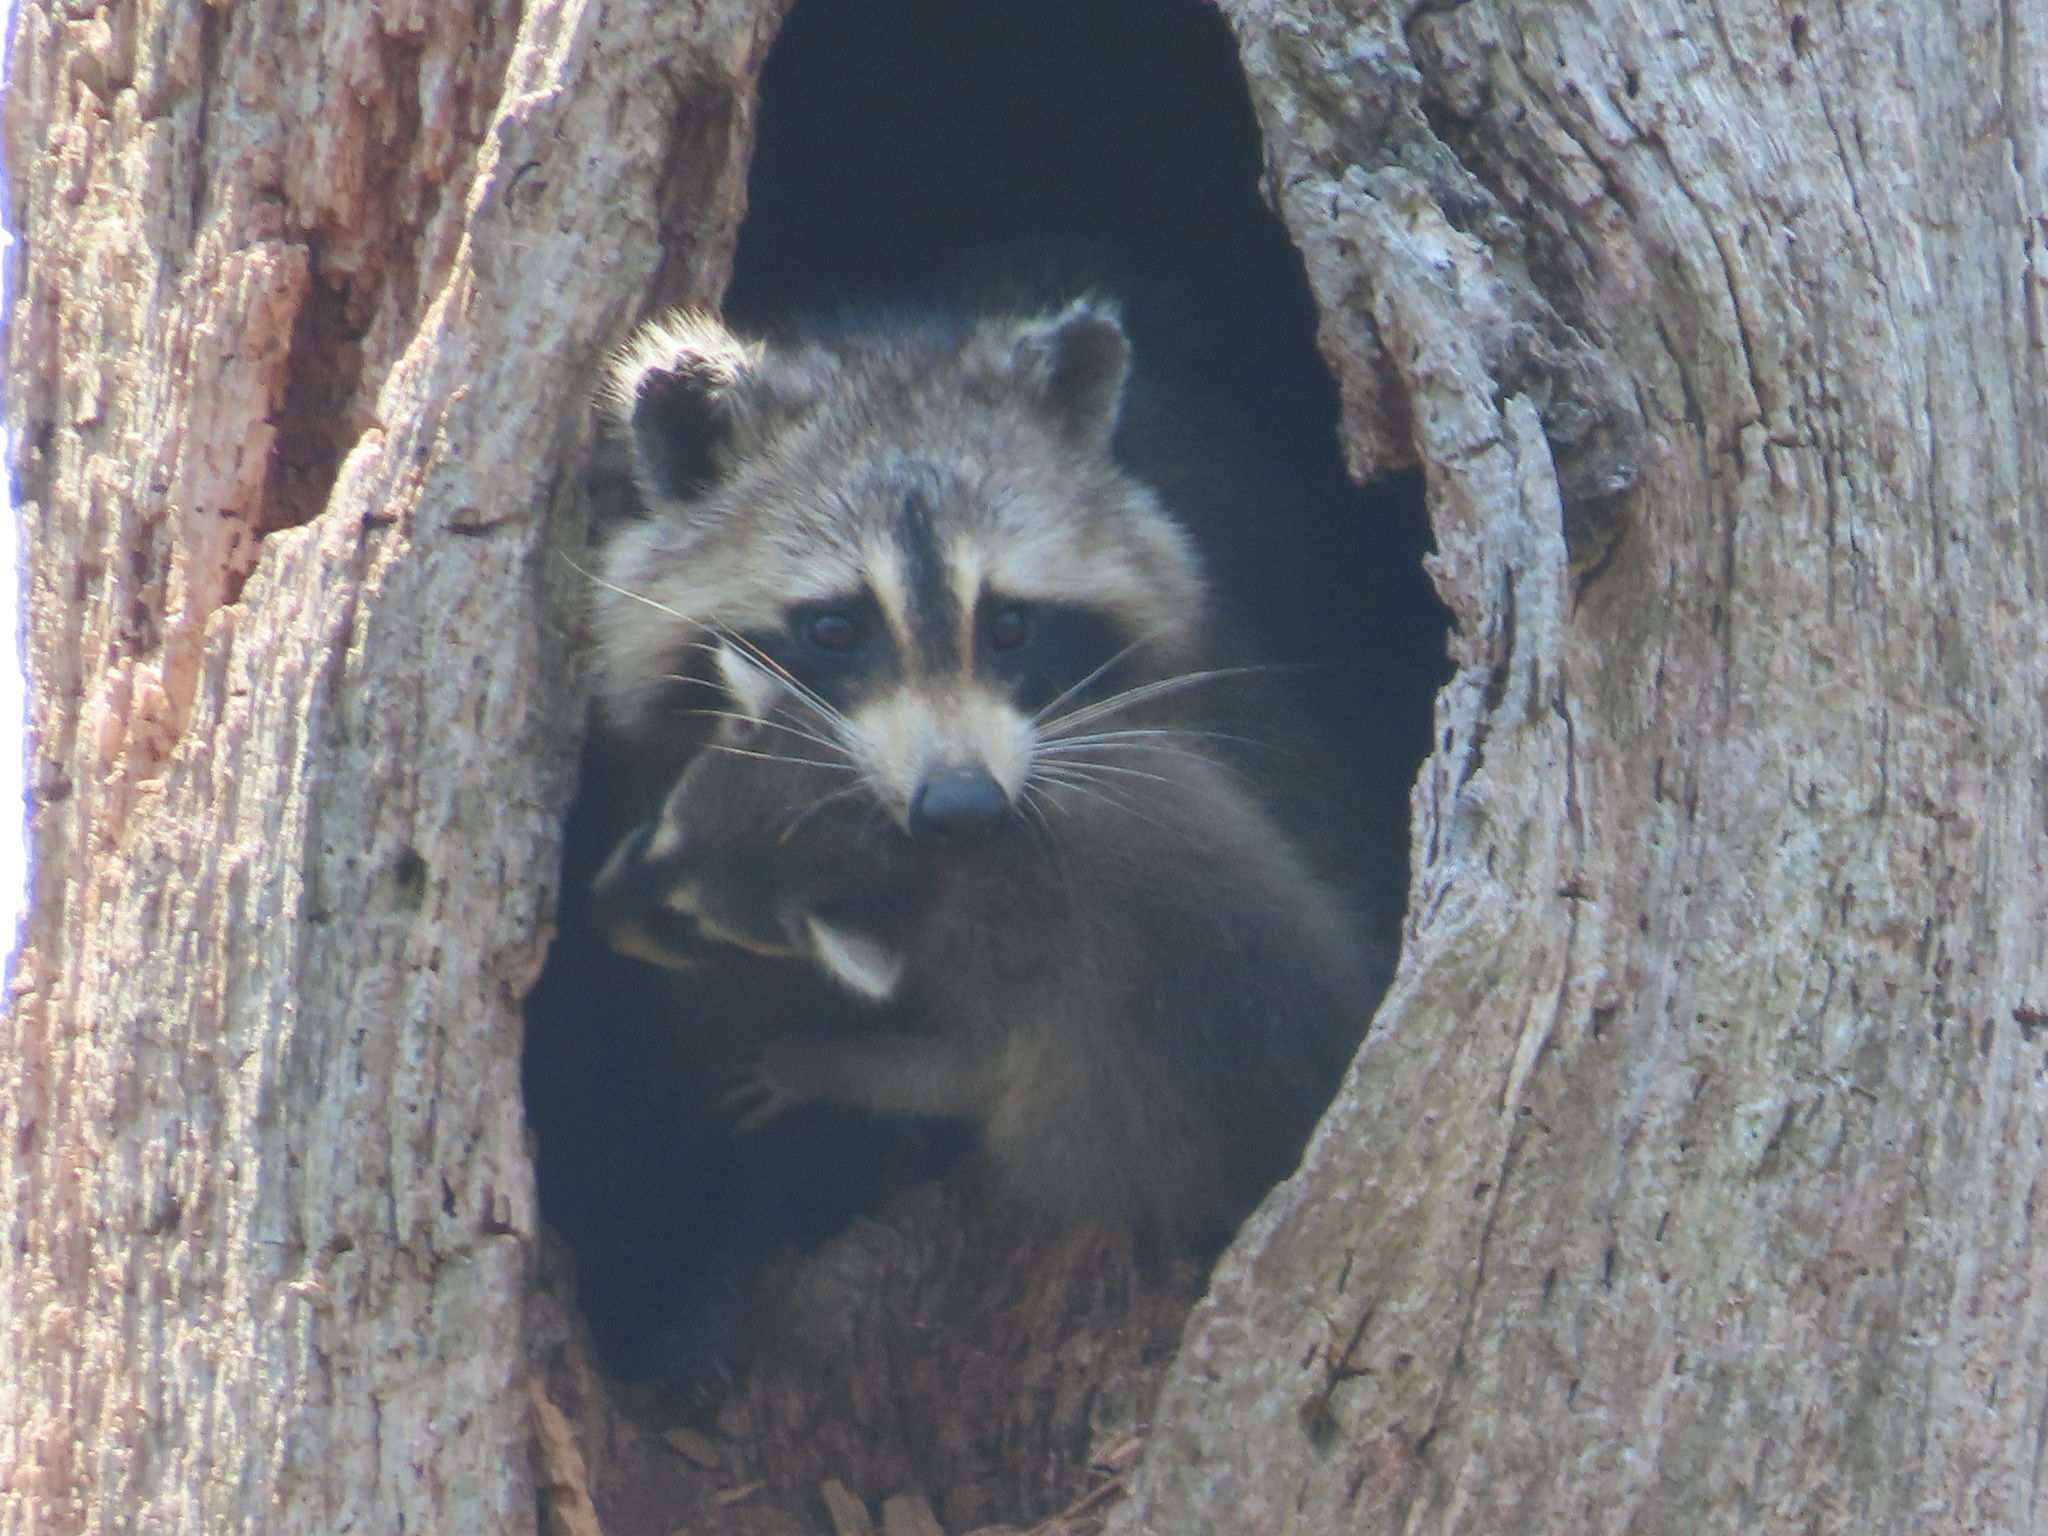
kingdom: Animalia
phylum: Chordata
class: Mammalia
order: Carnivora
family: Procyonidae
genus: Procyon
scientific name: Procyon lotor
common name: Raccoon
